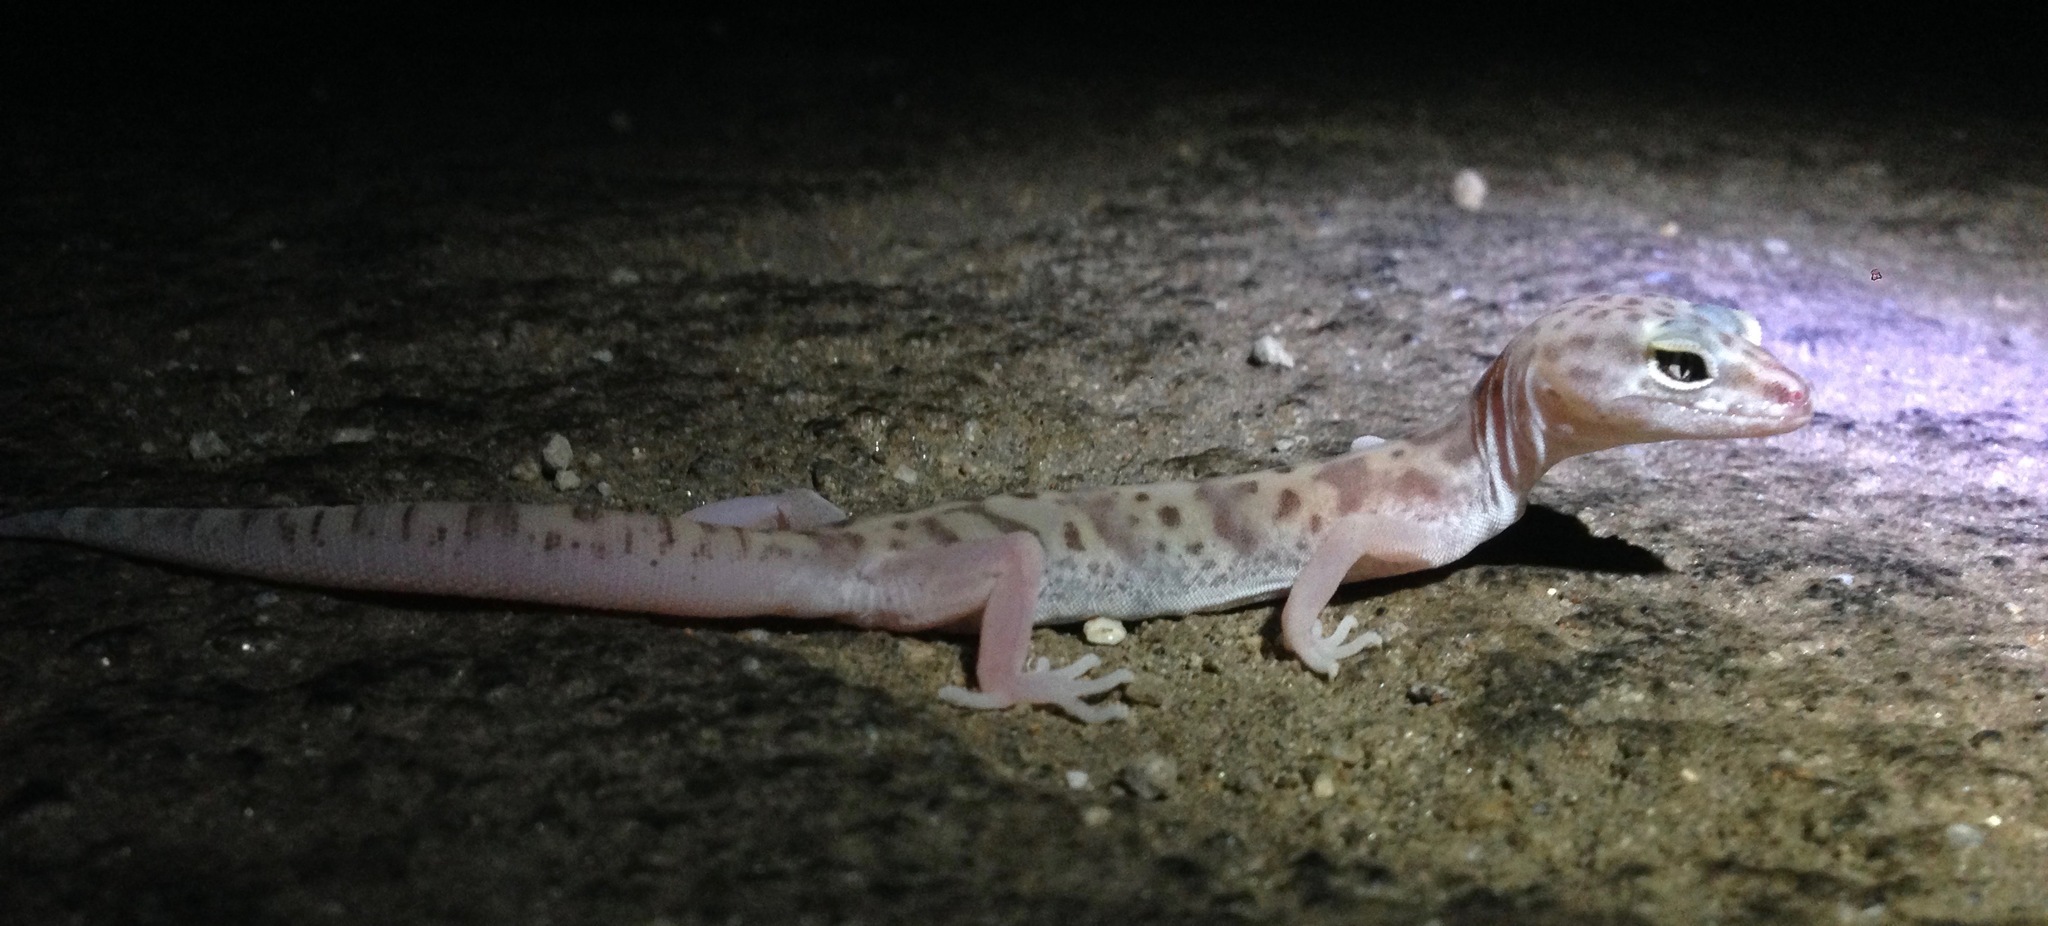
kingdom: Animalia
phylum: Chordata
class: Squamata
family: Eublepharidae
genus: Coleonyx
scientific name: Coleonyx variegatus
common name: Western banded gecko
